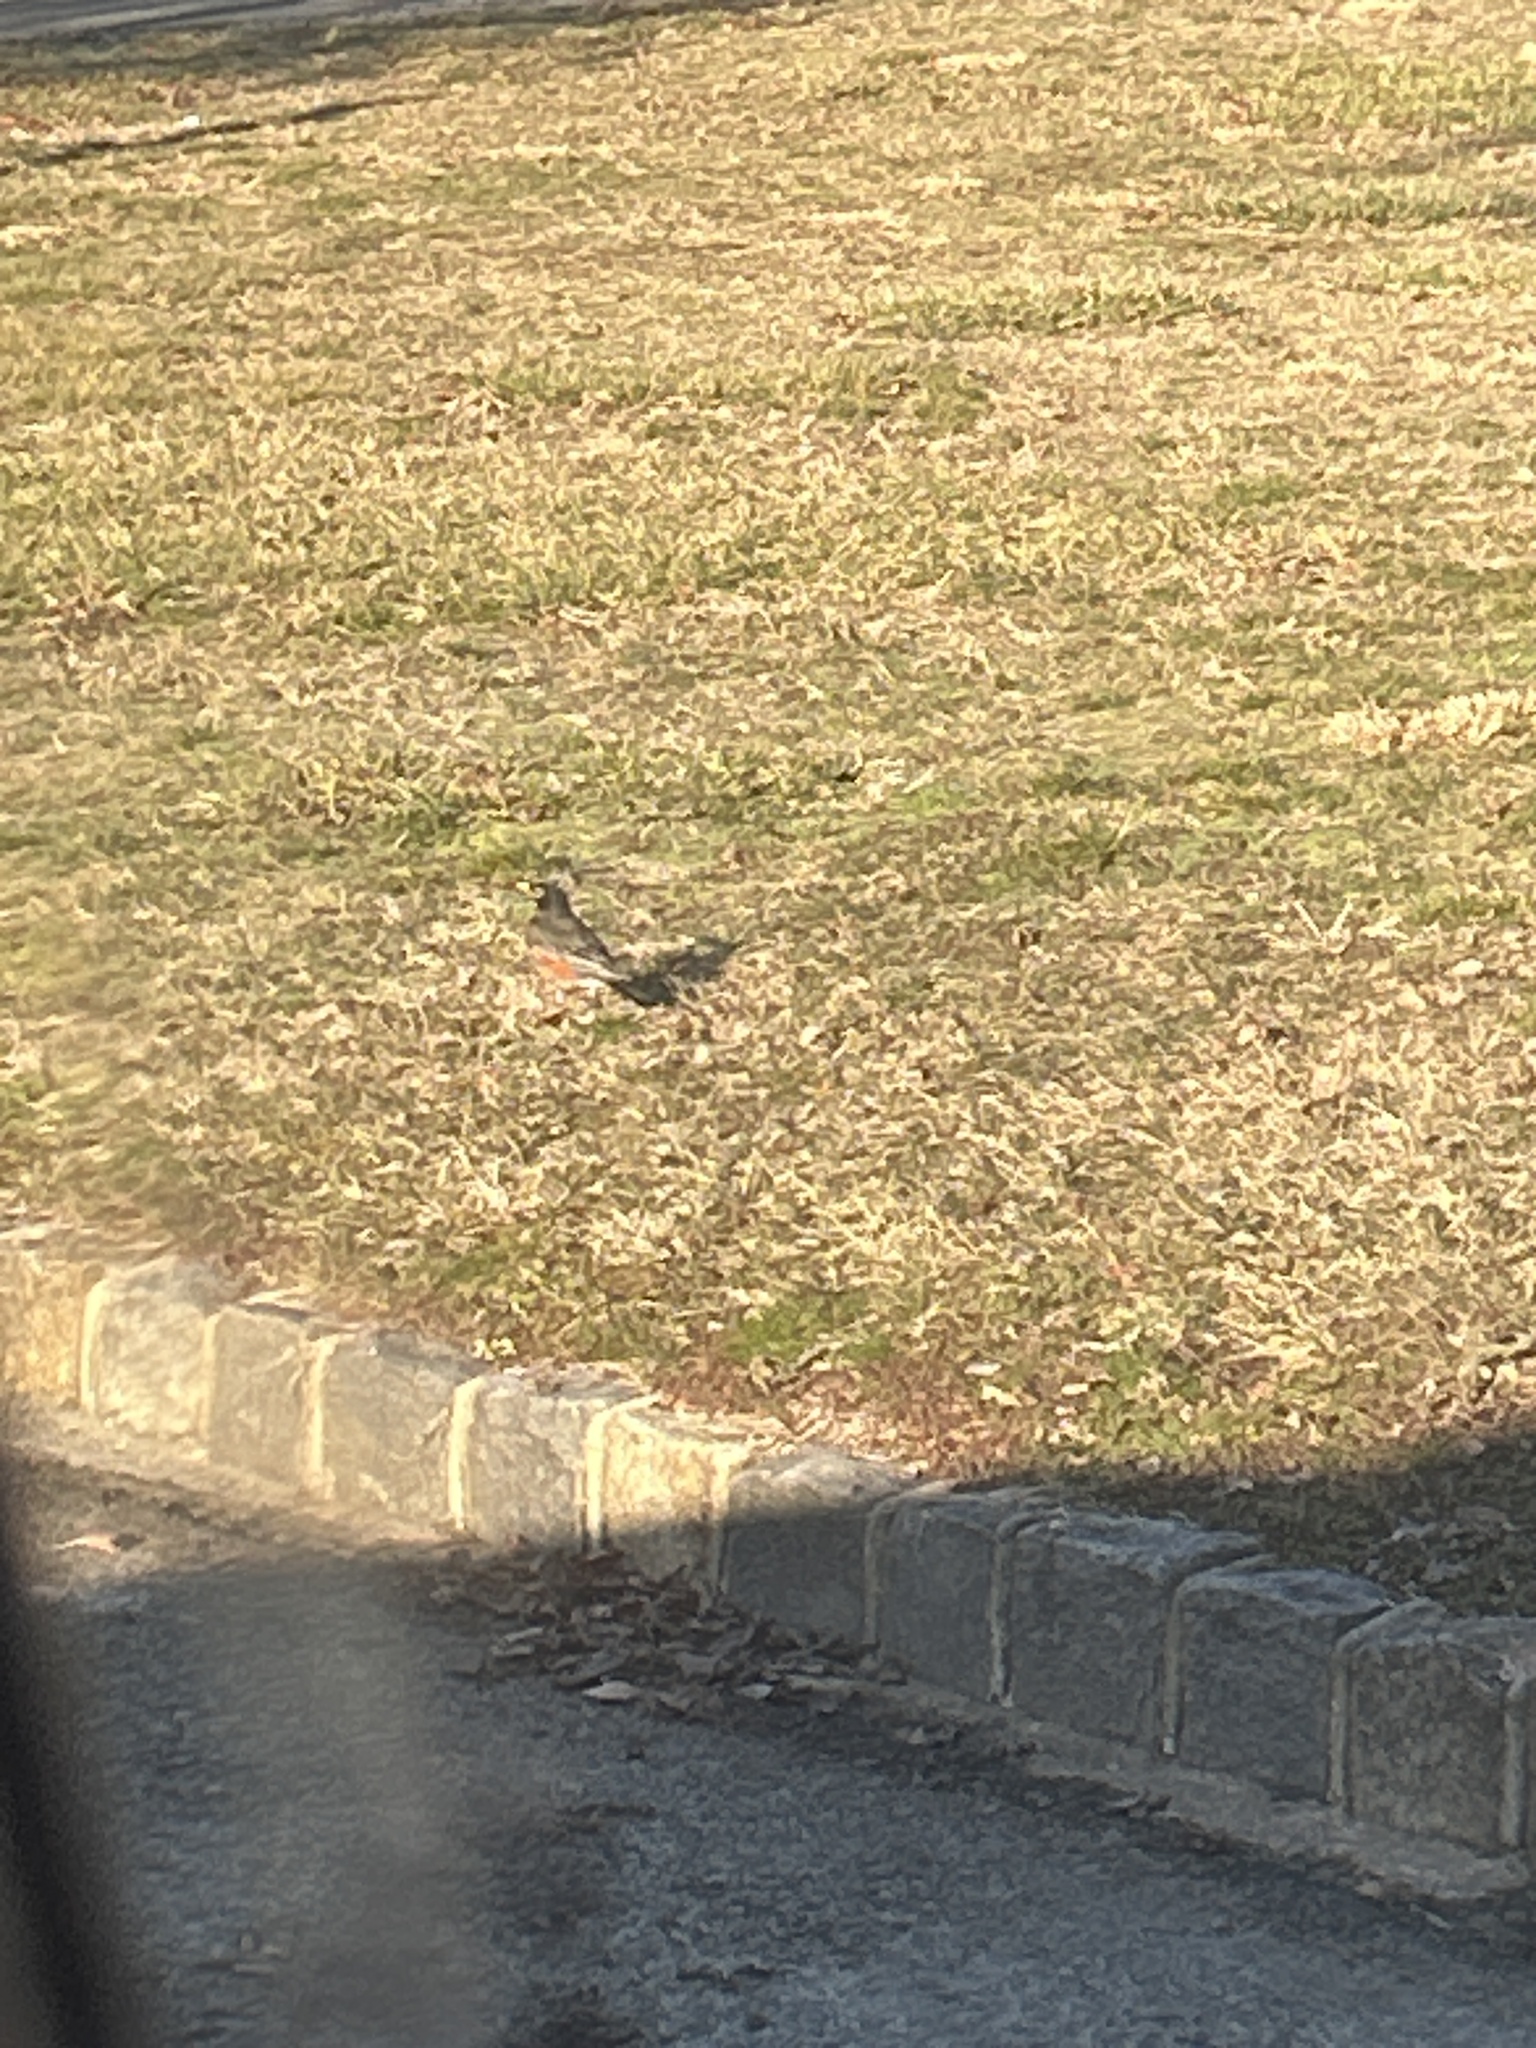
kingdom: Animalia
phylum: Chordata
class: Aves
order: Passeriformes
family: Turdidae
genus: Turdus
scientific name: Turdus migratorius
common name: American robin
